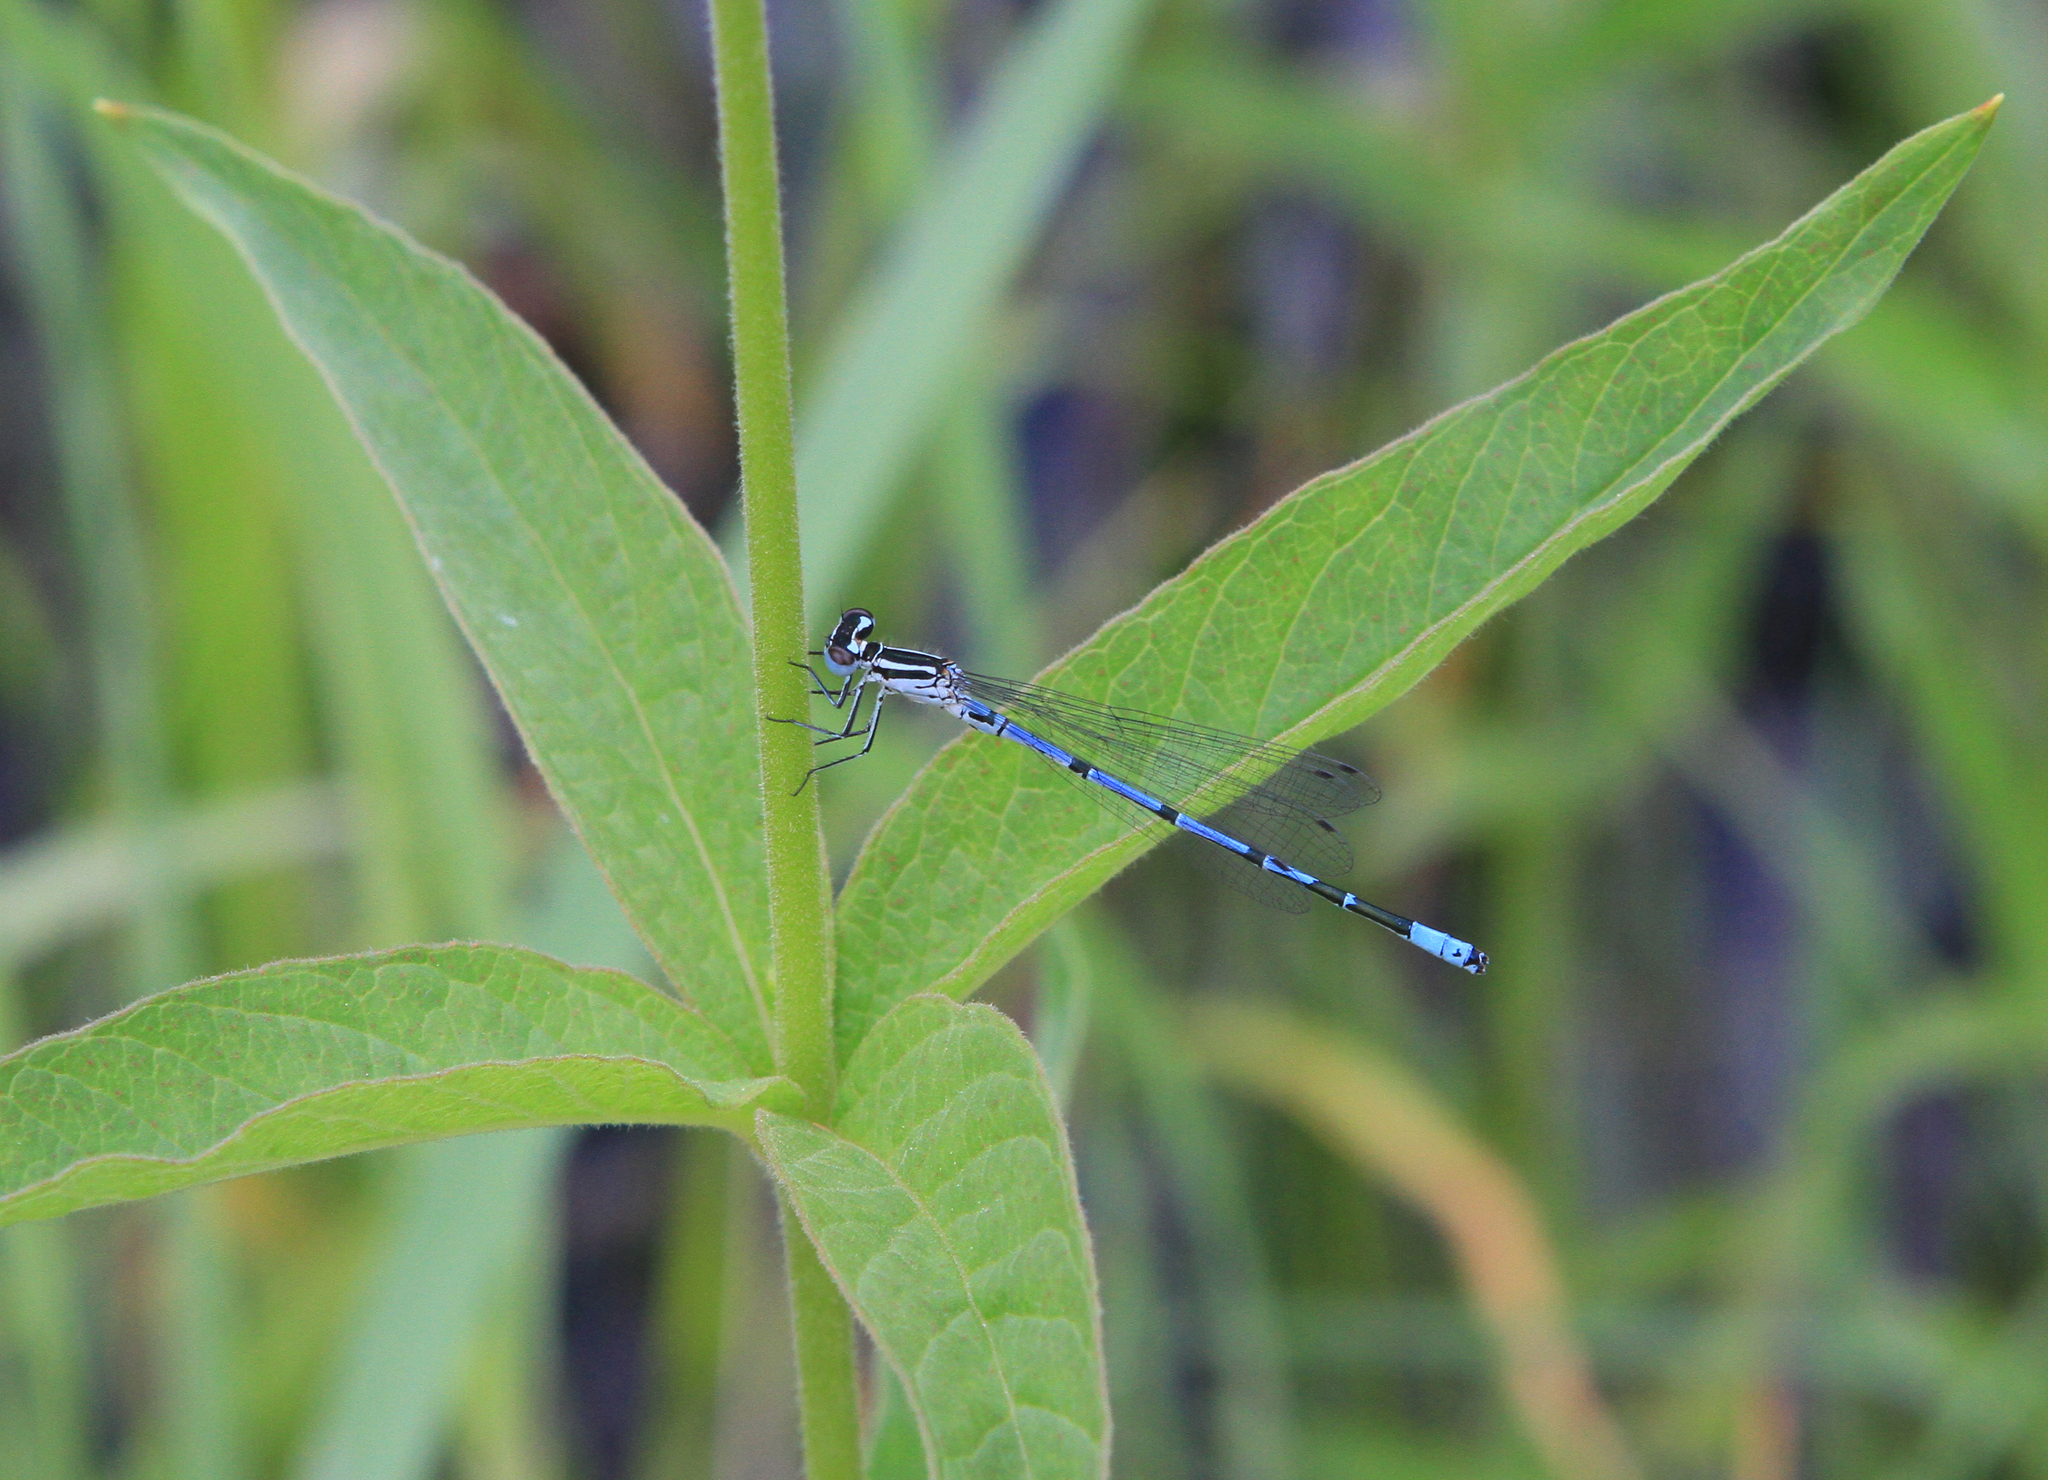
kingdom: Animalia
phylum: Arthropoda
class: Insecta
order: Odonata
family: Coenagrionidae
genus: Coenagrion
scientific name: Coenagrion puella
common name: Azure damselfly
